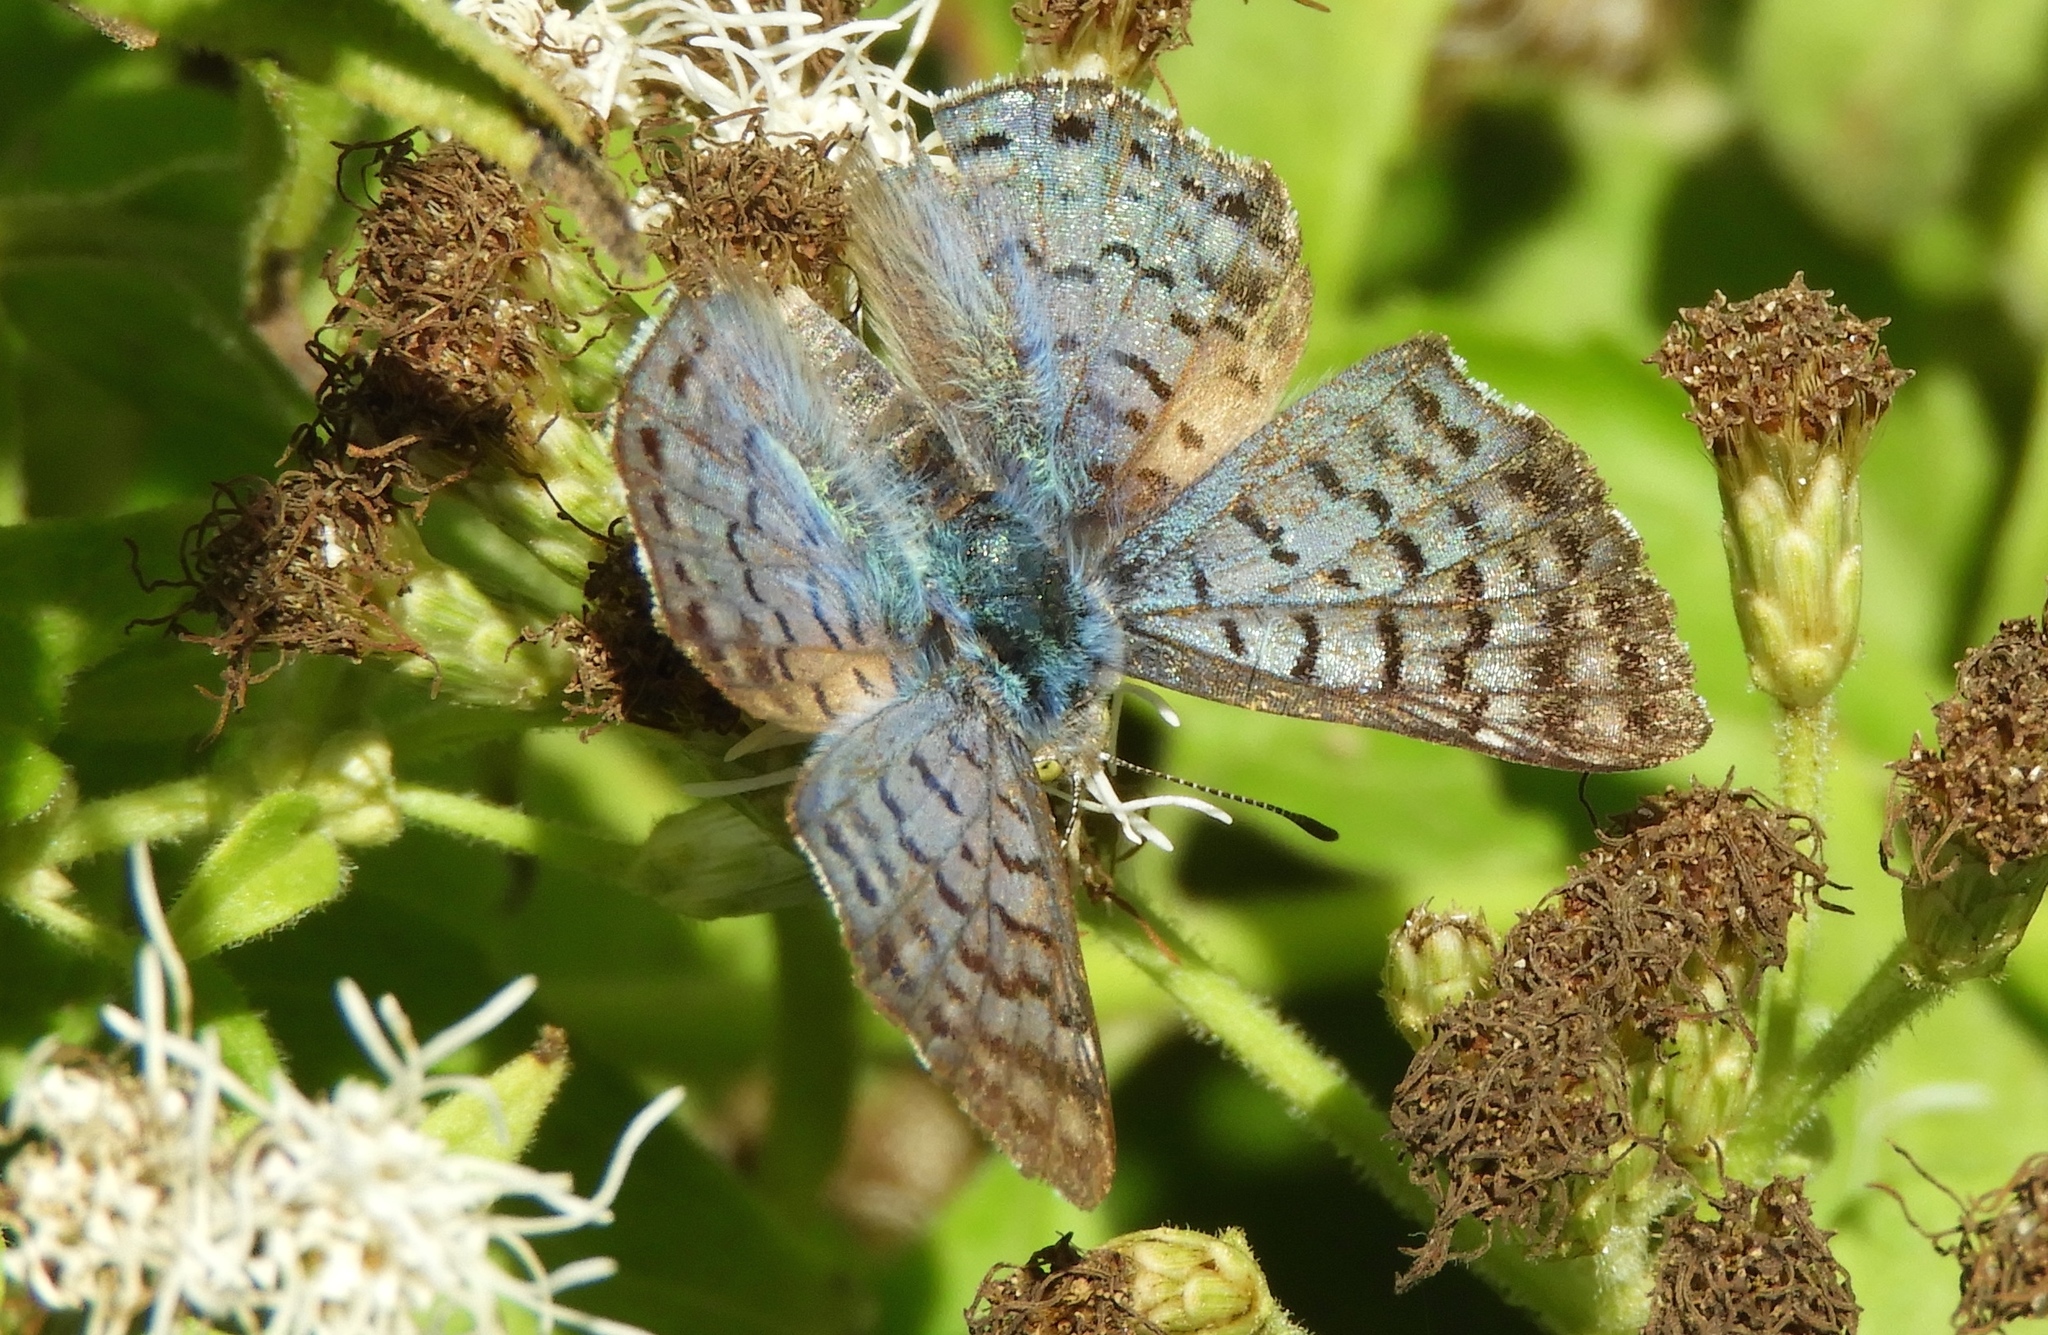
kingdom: Animalia
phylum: Arthropoda
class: Insecta
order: Lepidoptera
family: Riodinidae
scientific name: Riodinidae
